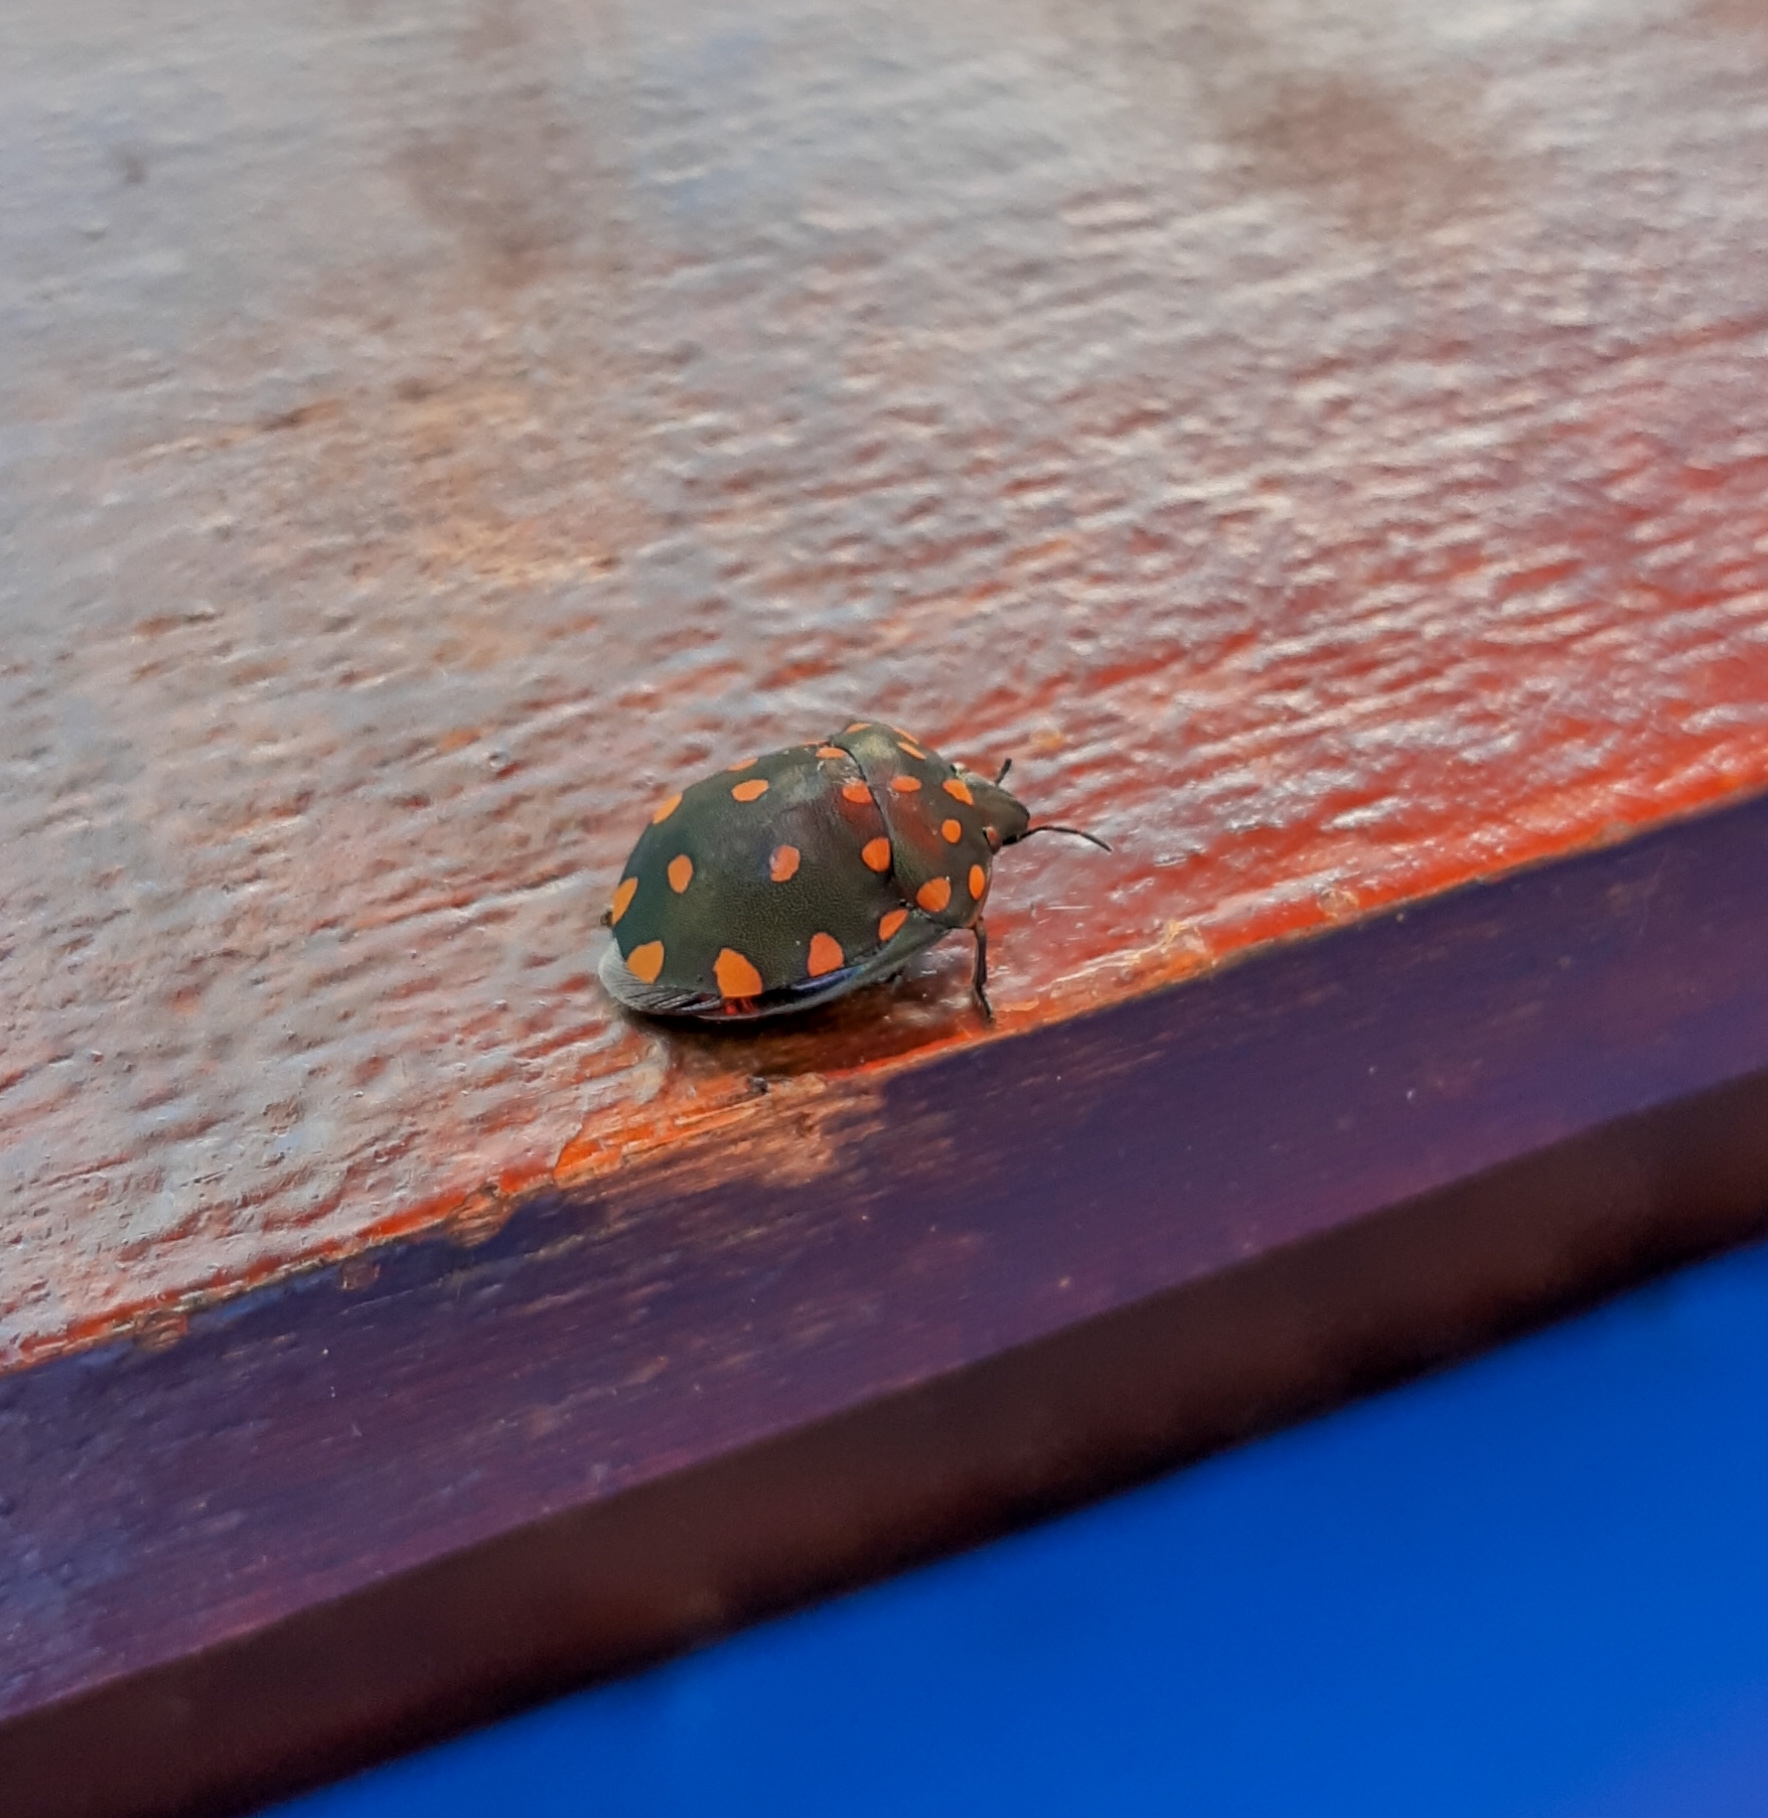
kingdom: Animalia
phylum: Arthropoda
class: Insecta
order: Hemiptera
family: Scutelleridae
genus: Pachycoris
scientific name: Pachycoris torridus
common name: Torrid jewel bug
